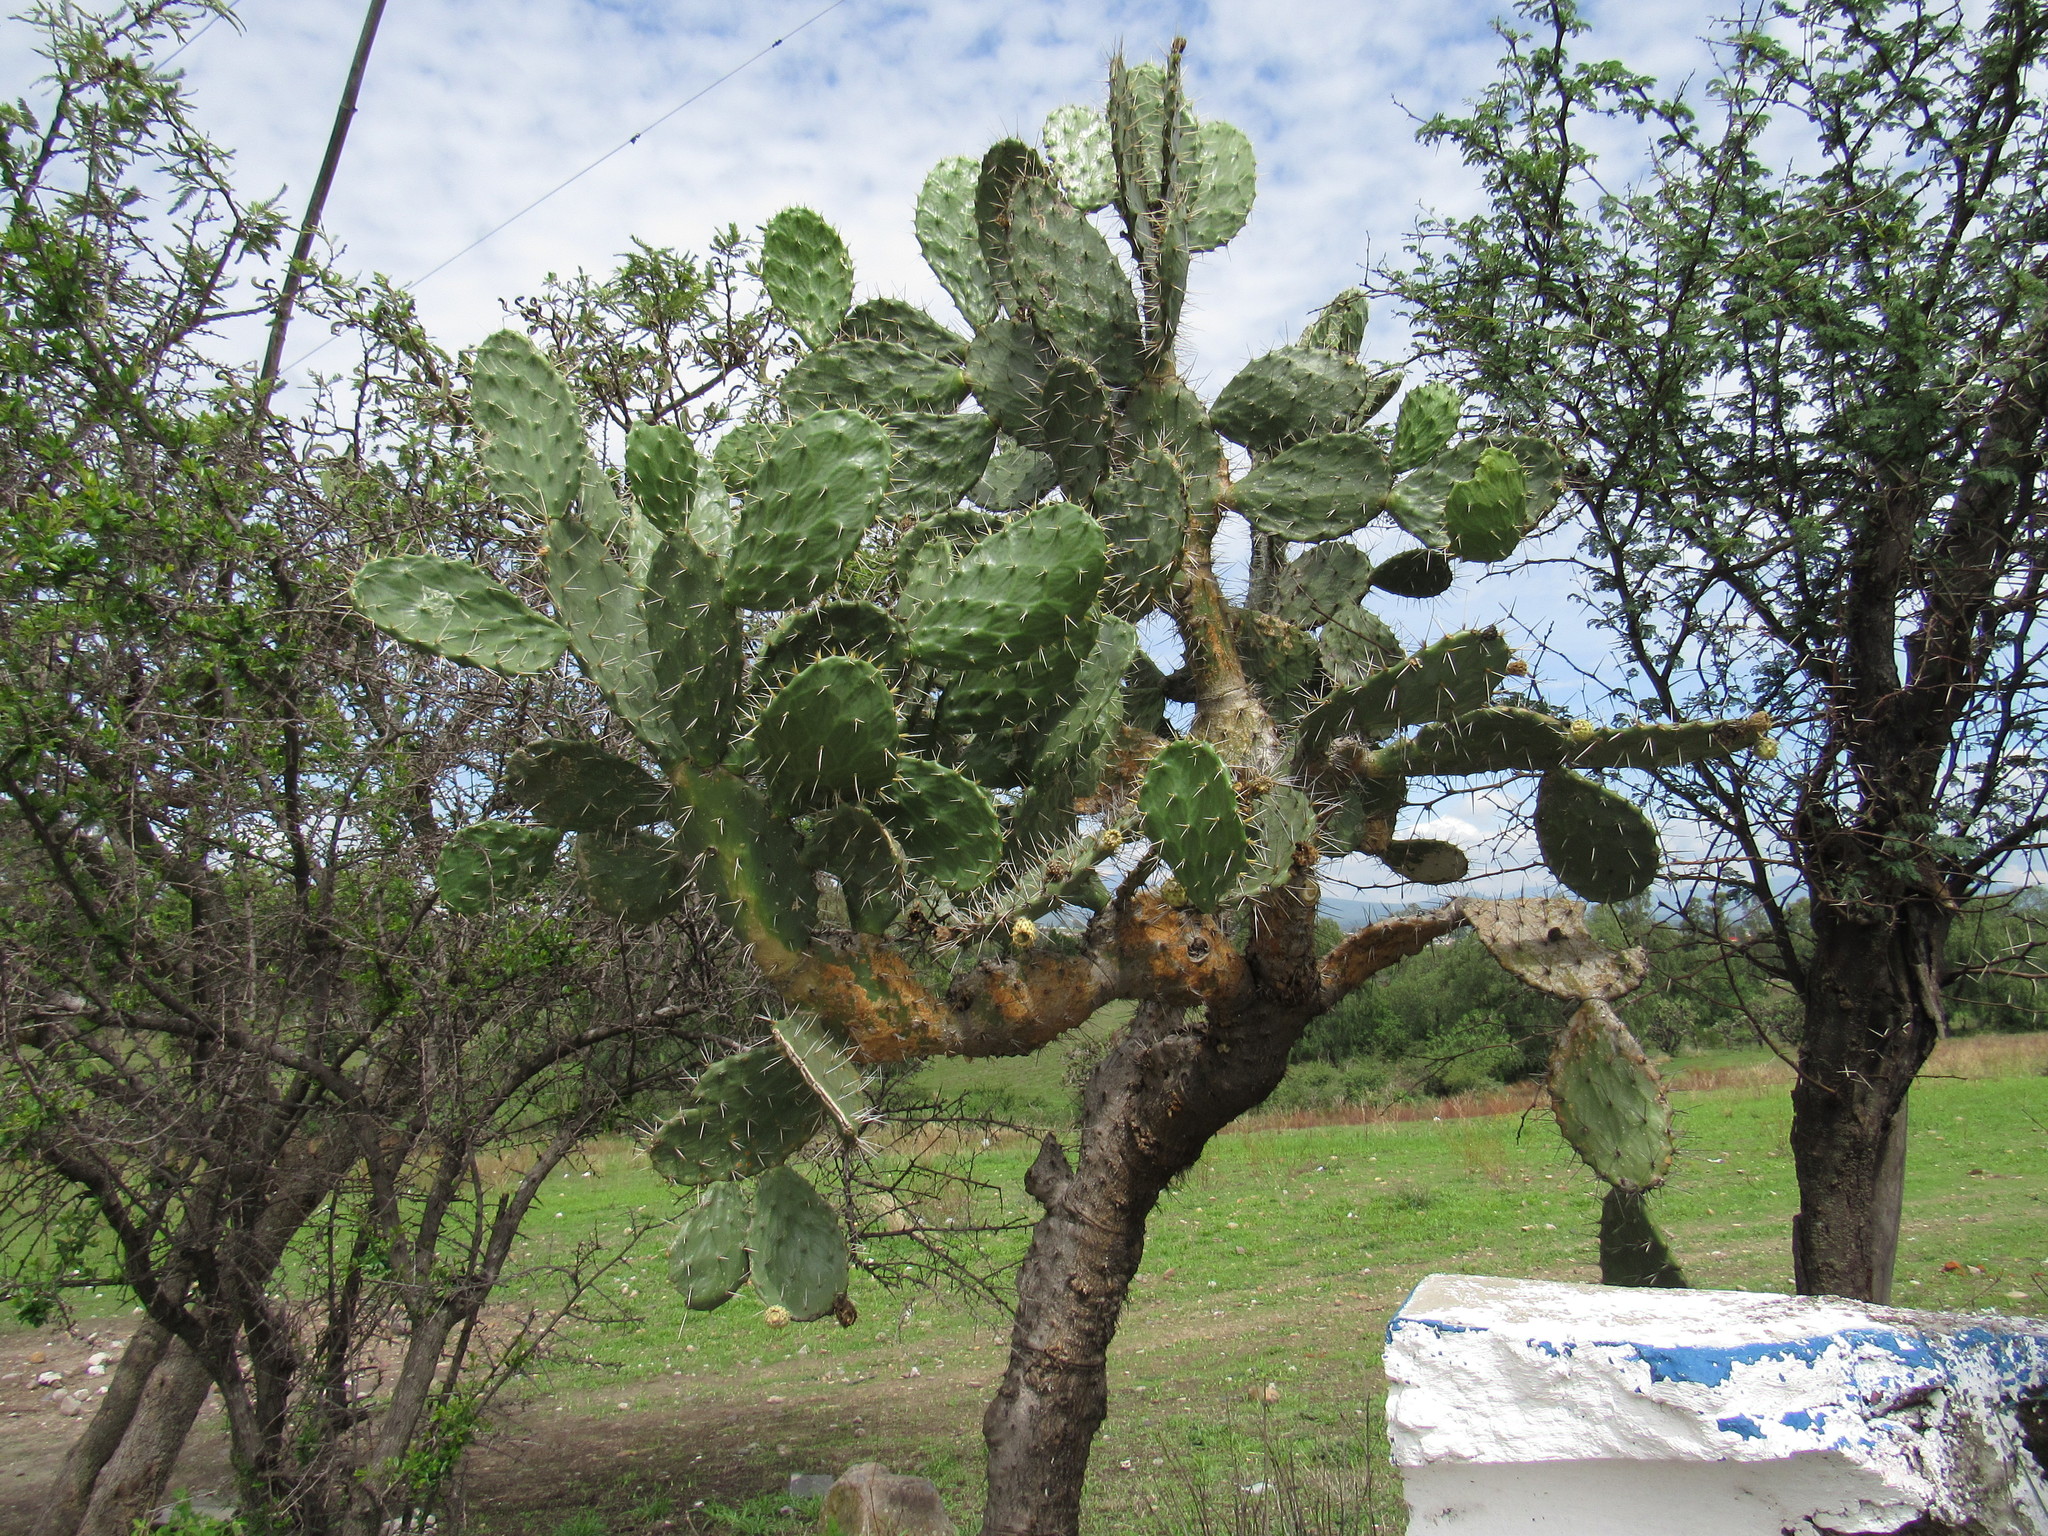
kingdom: Plantae
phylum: Tracheophyta
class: Magnoliopsida
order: Caryophyllales
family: Cactaceae
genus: Opuntia
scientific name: Opuntia tomentosa
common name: Woollyjoint pricklypear
